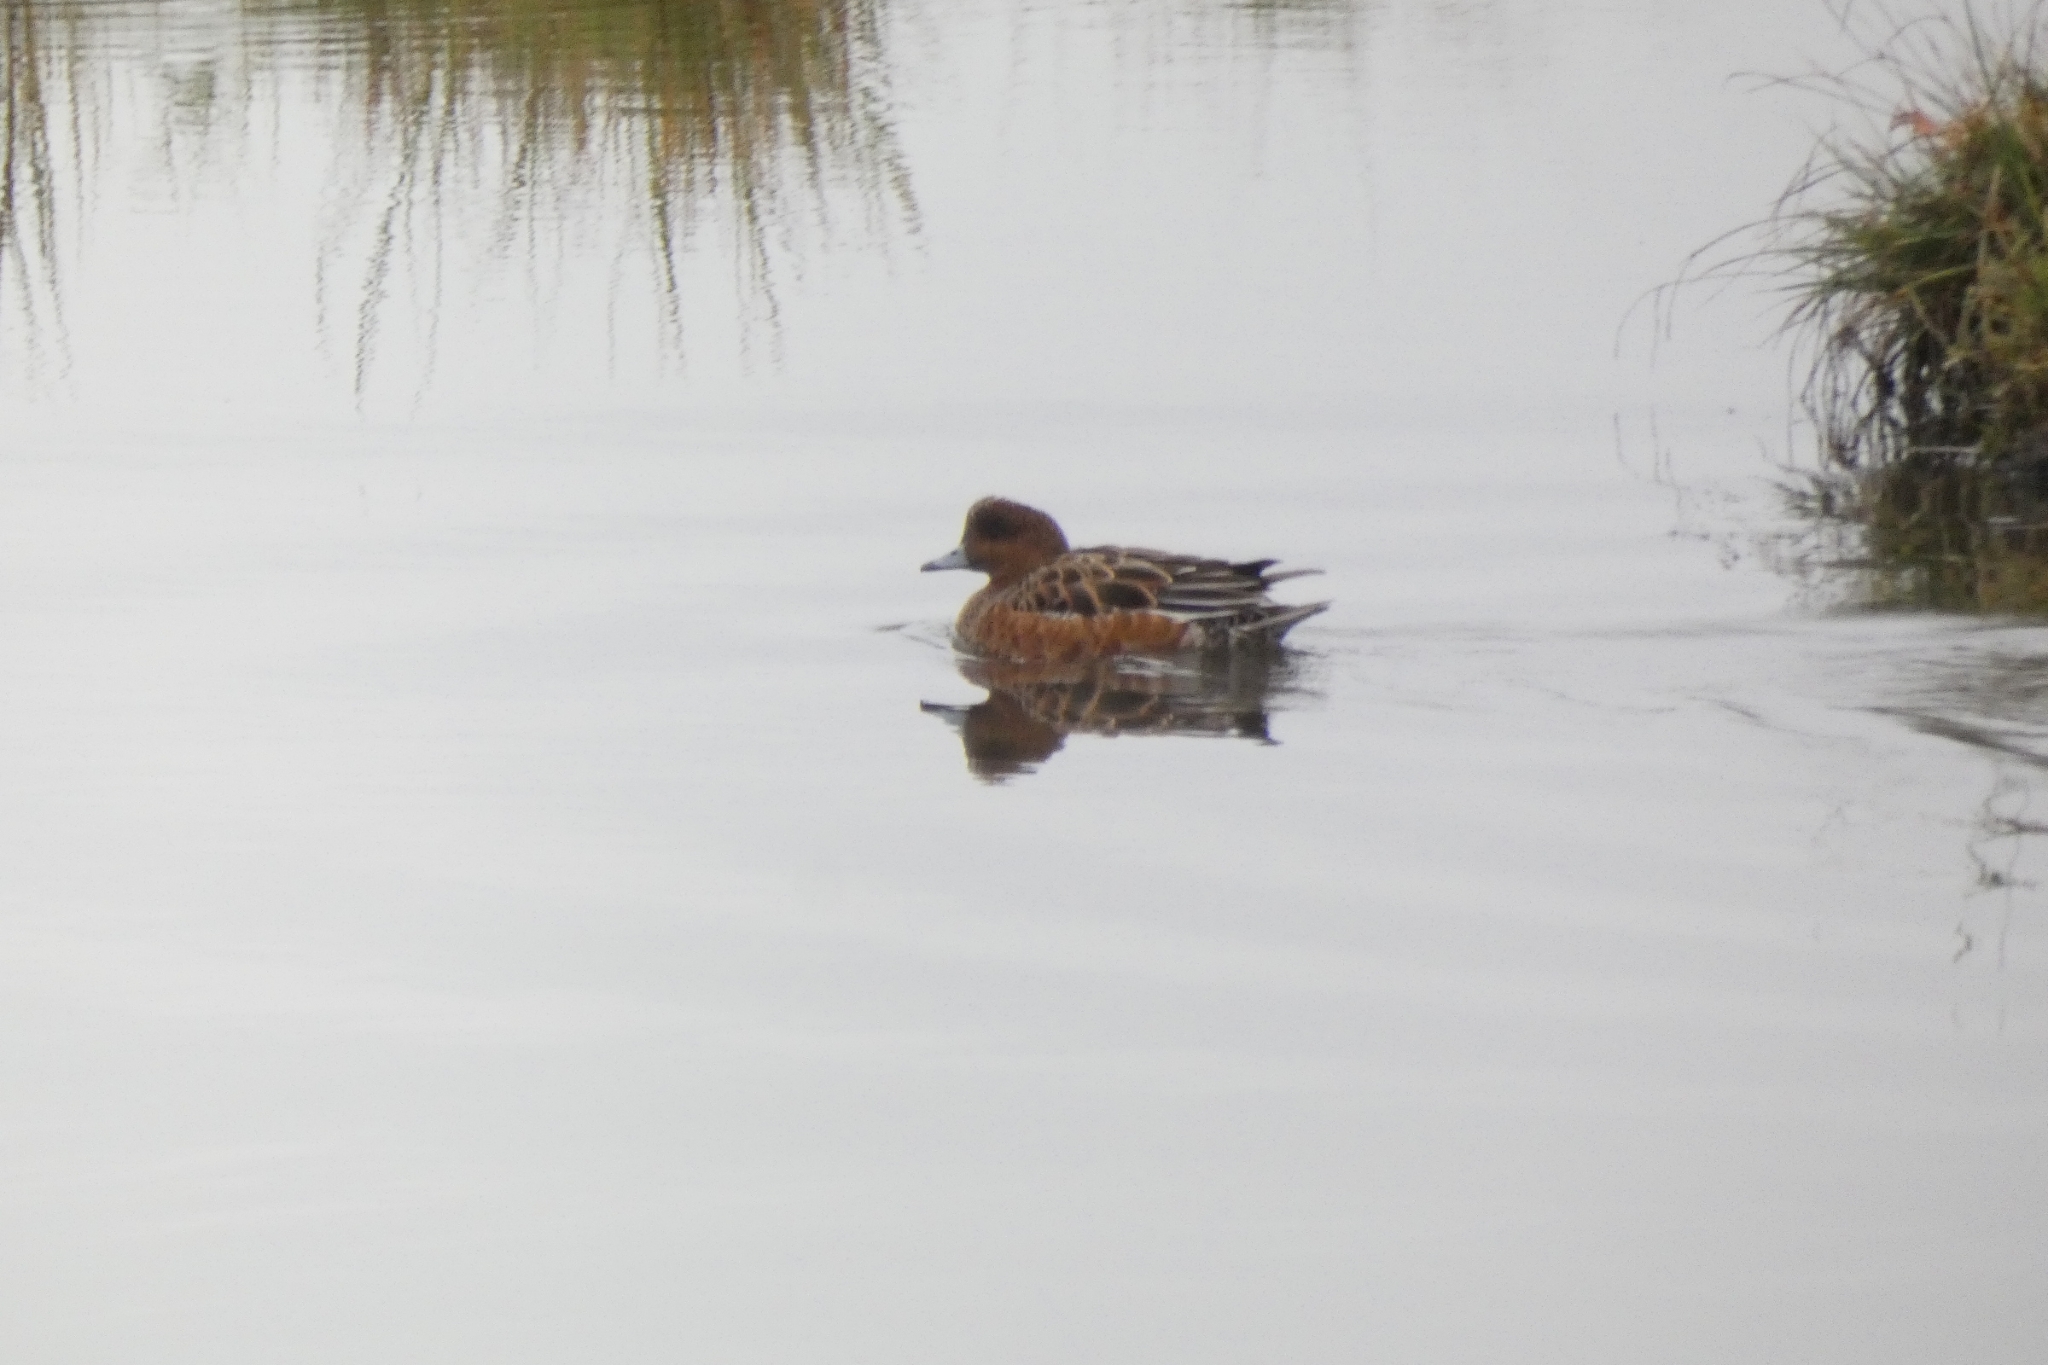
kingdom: Animalia
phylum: Chordata
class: Aves
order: Anseriformes
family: Anatidae
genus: Mareca
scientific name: Mareca penelope
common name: Eurasian wigeon
